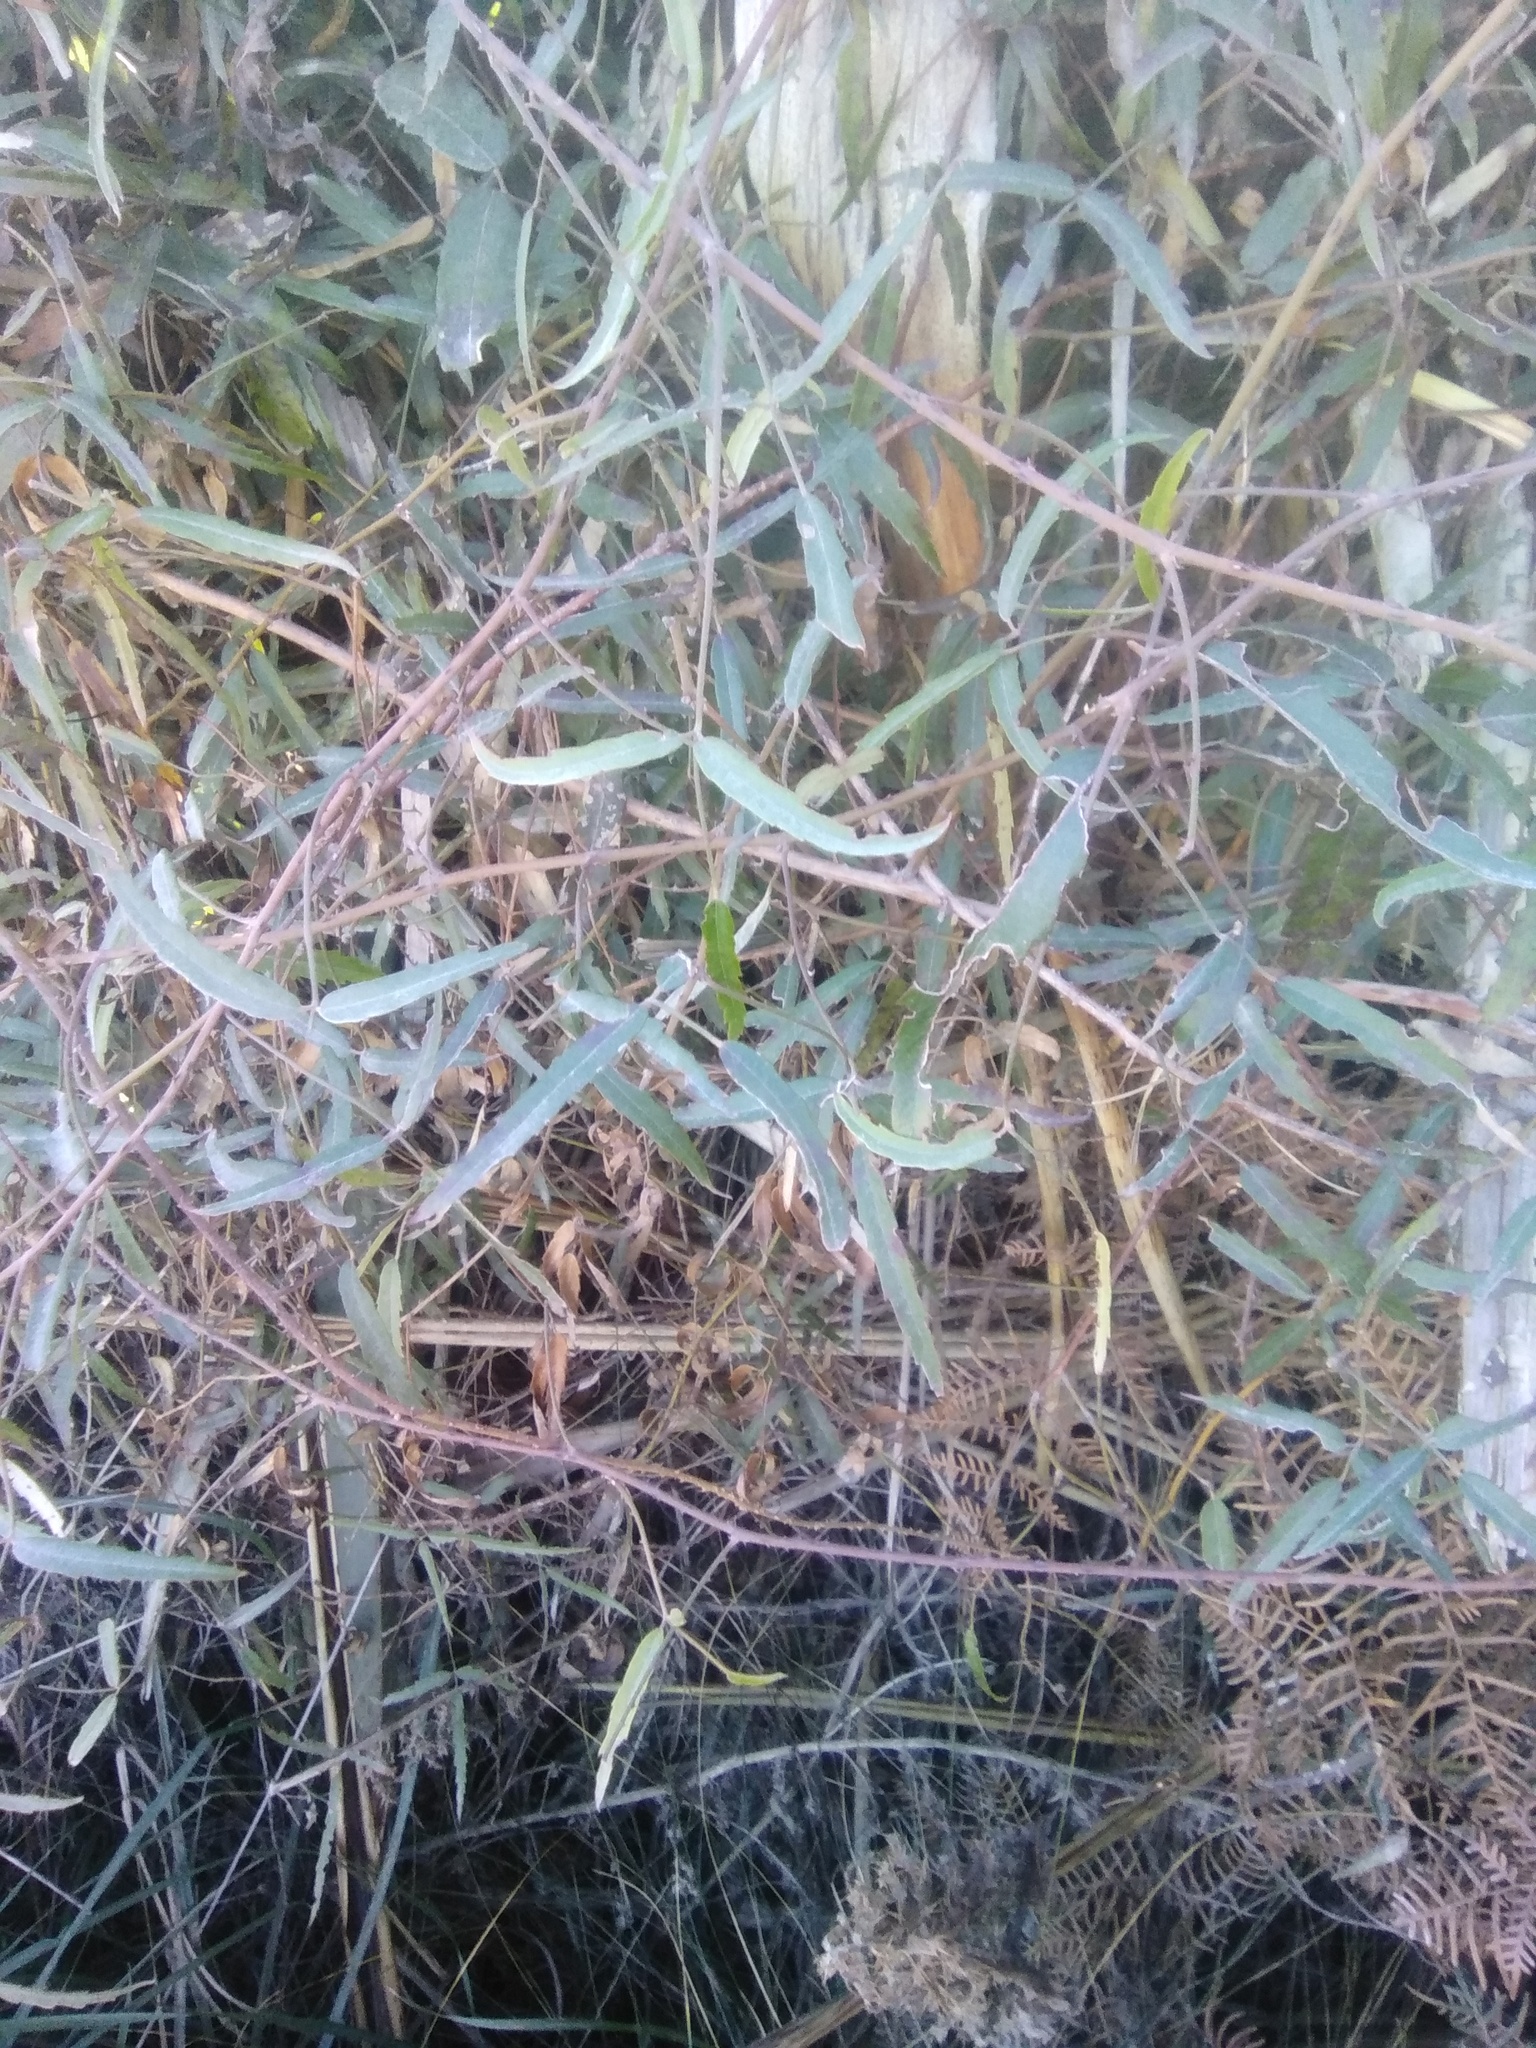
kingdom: Plantae
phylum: Tracheophyta
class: Magnoliopsida
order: Rosales
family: Rosaceae
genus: Rubus
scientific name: Rubus schmidelioides
